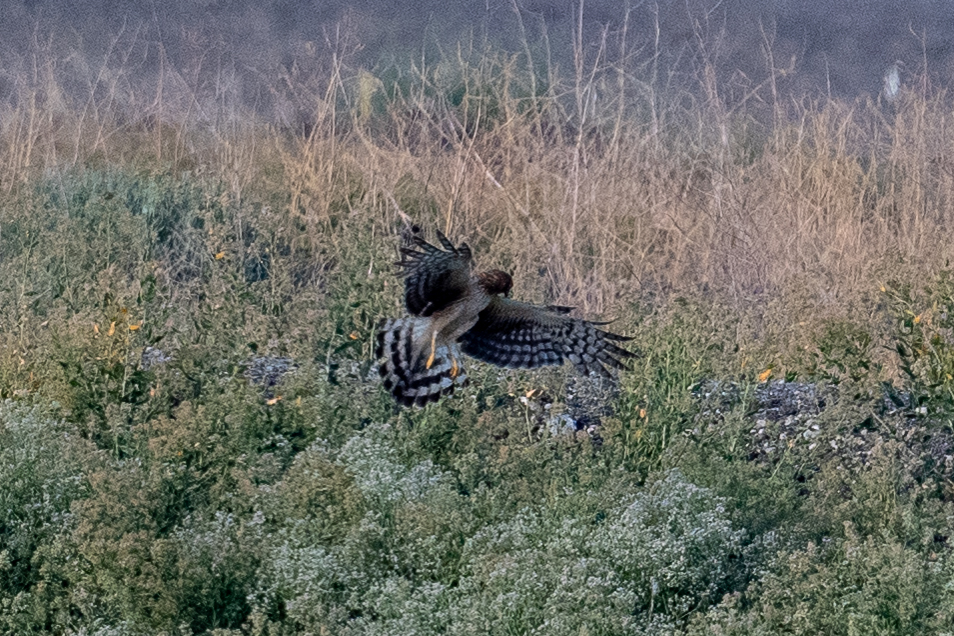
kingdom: Animalia
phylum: Chordata
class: Aves
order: Accipitriformes
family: Accipitridae
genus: Circus
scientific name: Circus cyaneus
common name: Hen harrier
